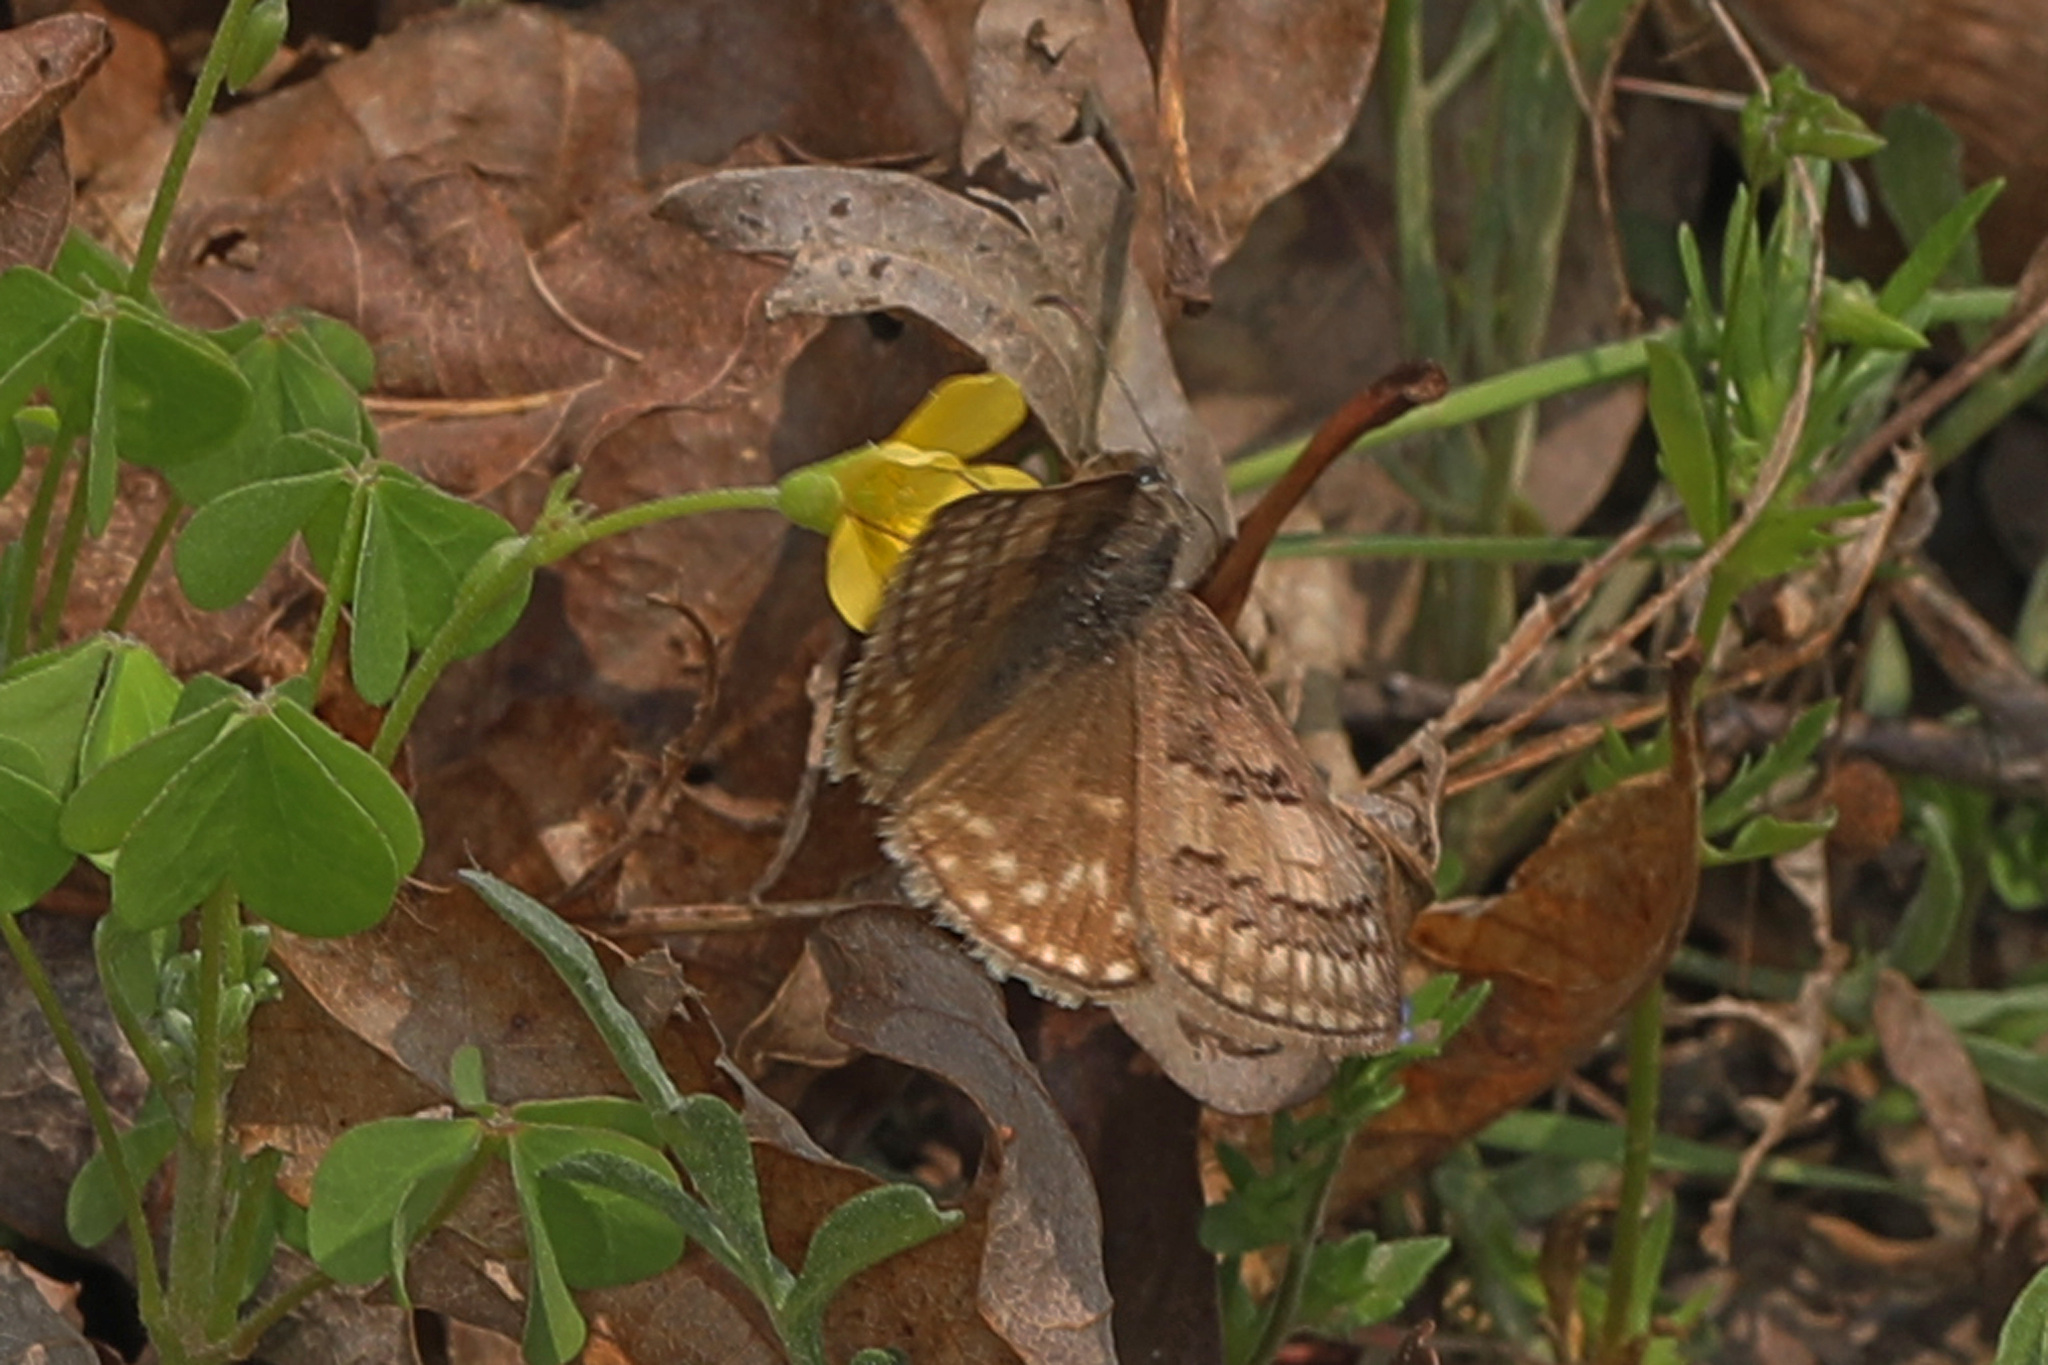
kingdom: Animalia
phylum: Arthropoda
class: Insecta
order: Lepidoptera
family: Hesperiidae
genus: Erynnis
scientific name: Erynnis brizo
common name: Sleepy duskywing
